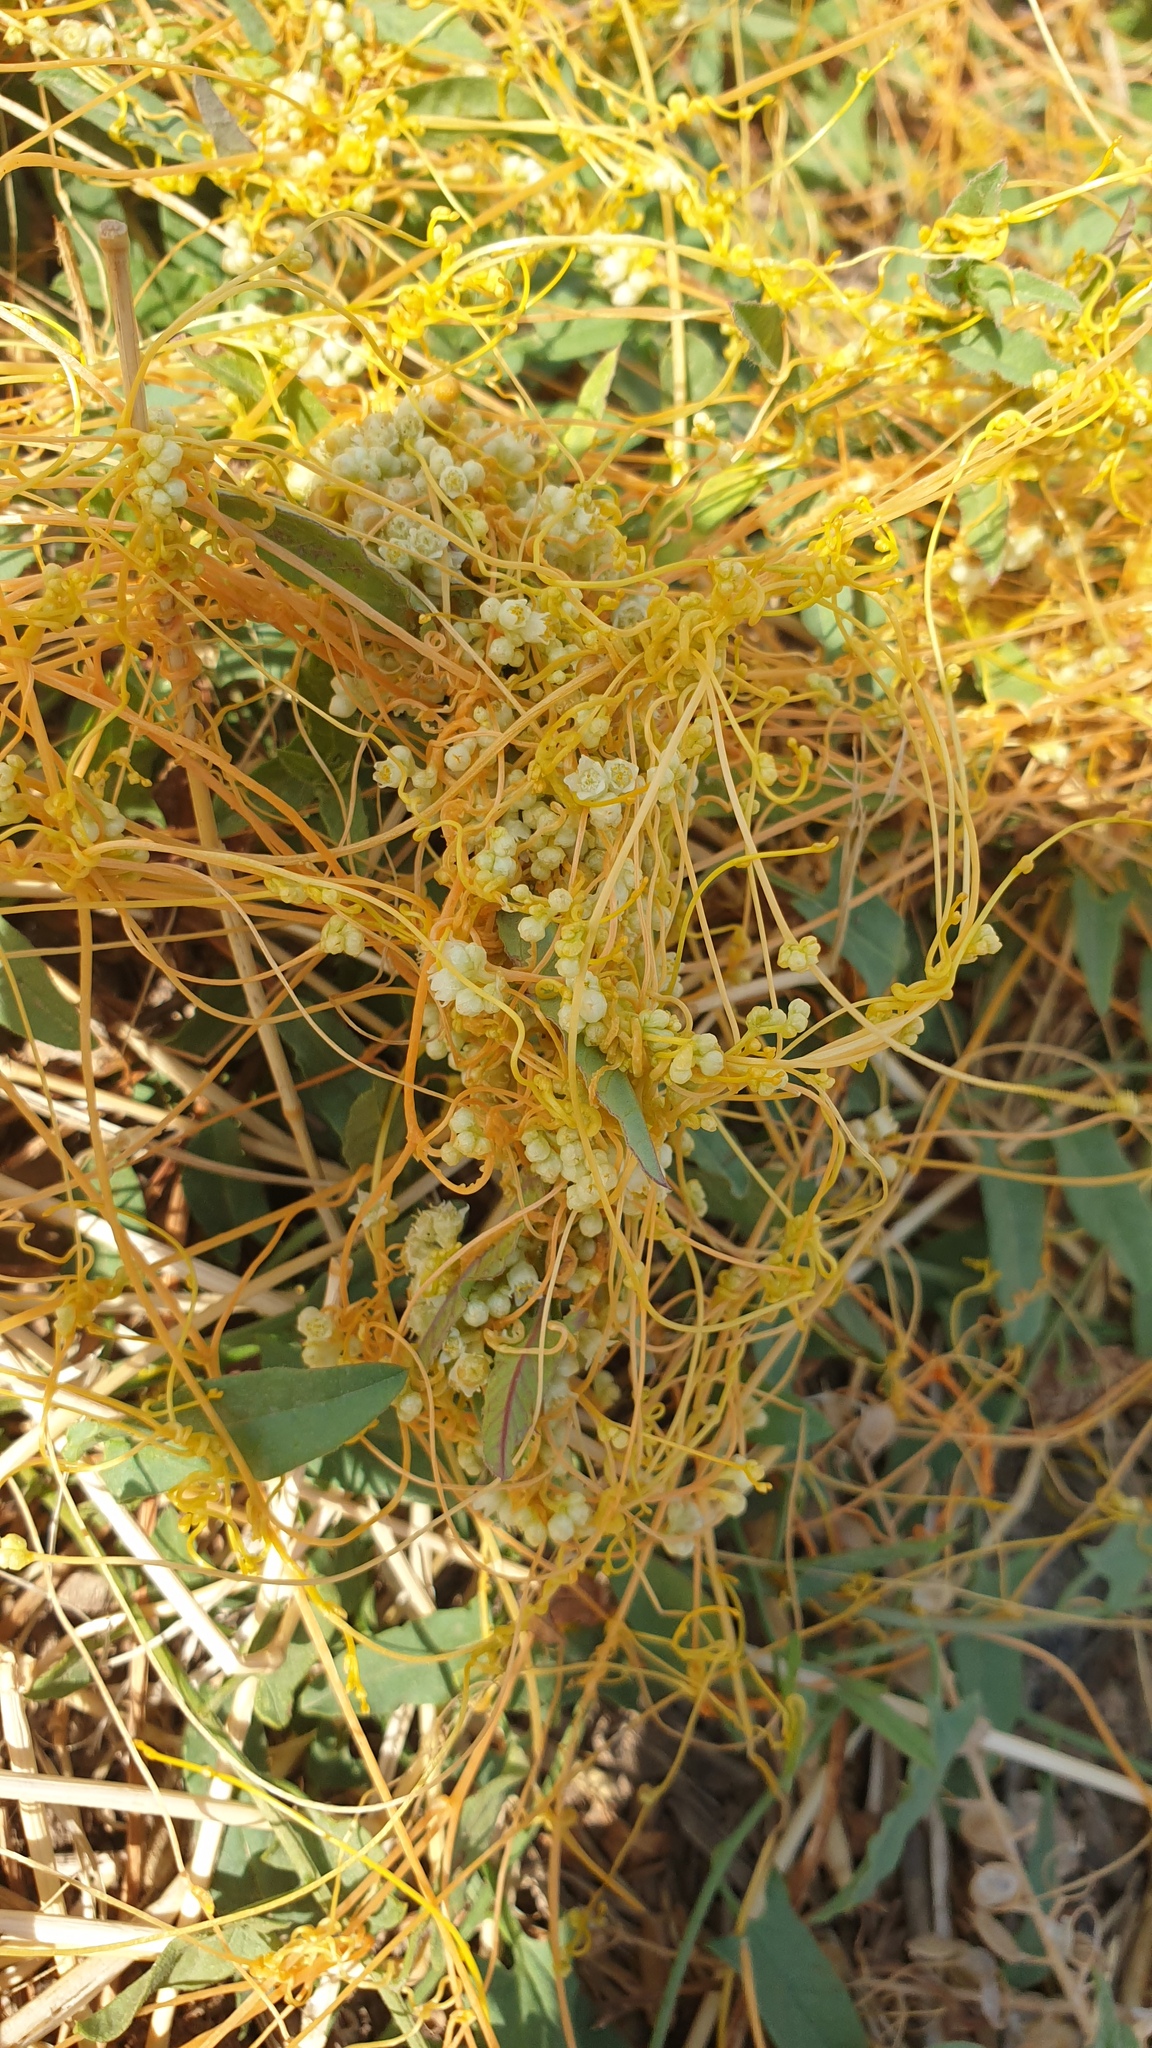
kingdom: Plantae
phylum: Tracheophyta
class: Magnoliopsida
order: Solanales
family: Convolvulaceae
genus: Cuscuta
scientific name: Cuscuta campestris
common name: Yellow dodder
